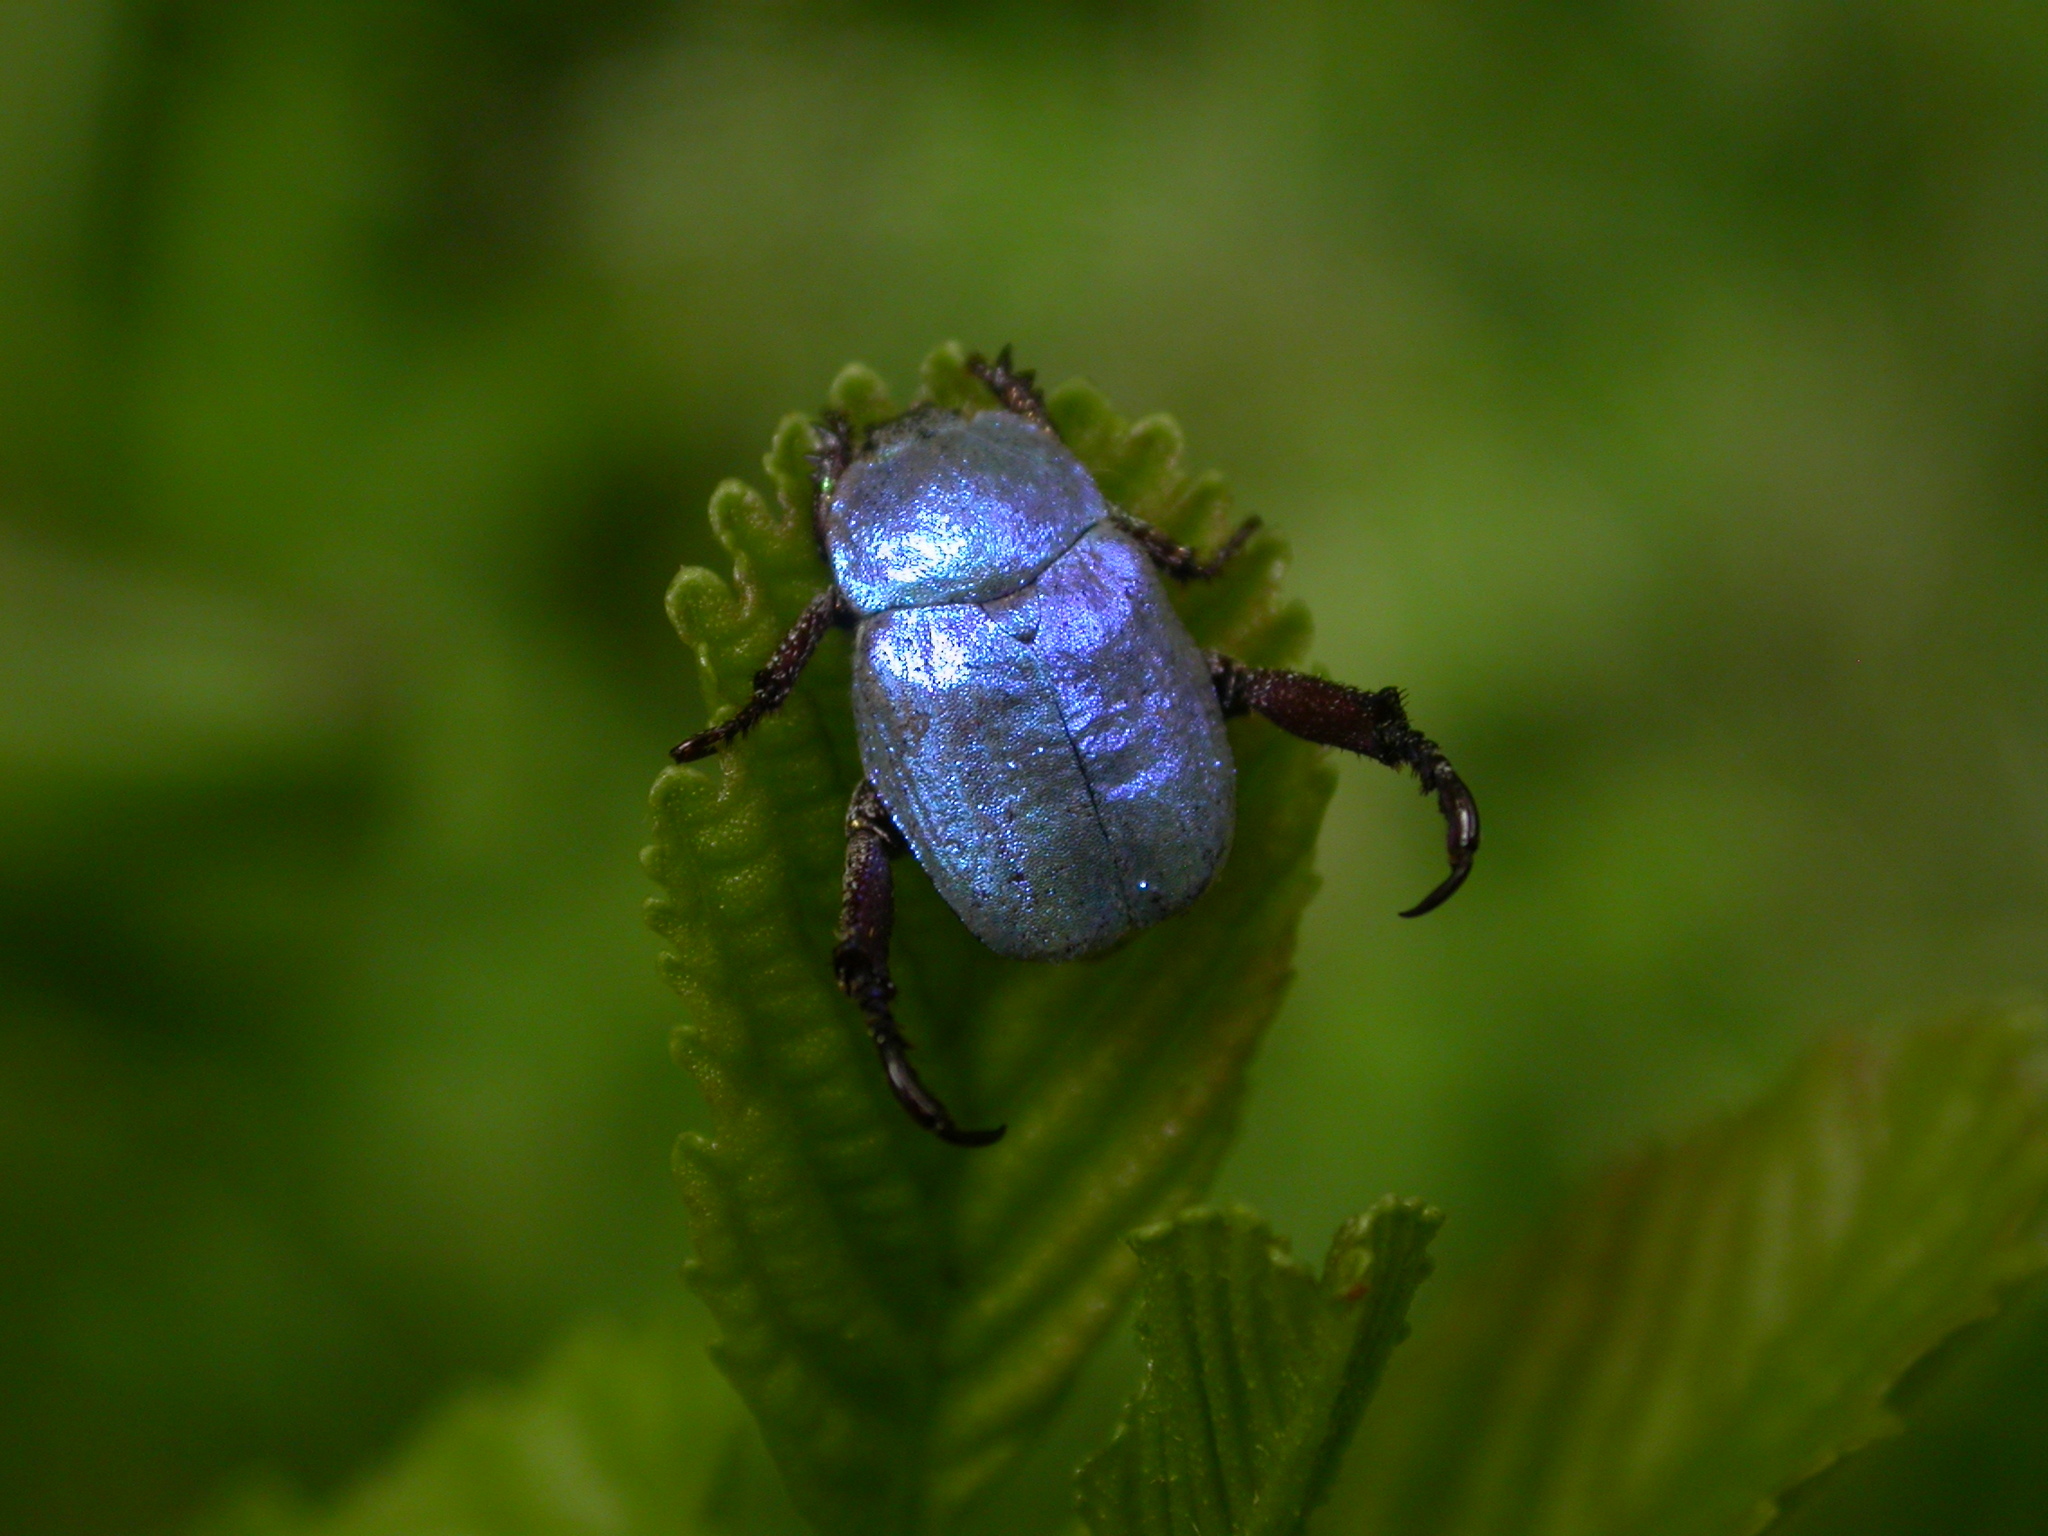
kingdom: Animalia
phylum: Arthropoda
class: Insecta
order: Coleoptera
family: Scarabaeidae
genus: Hoplia
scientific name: Hoplia coerulea
